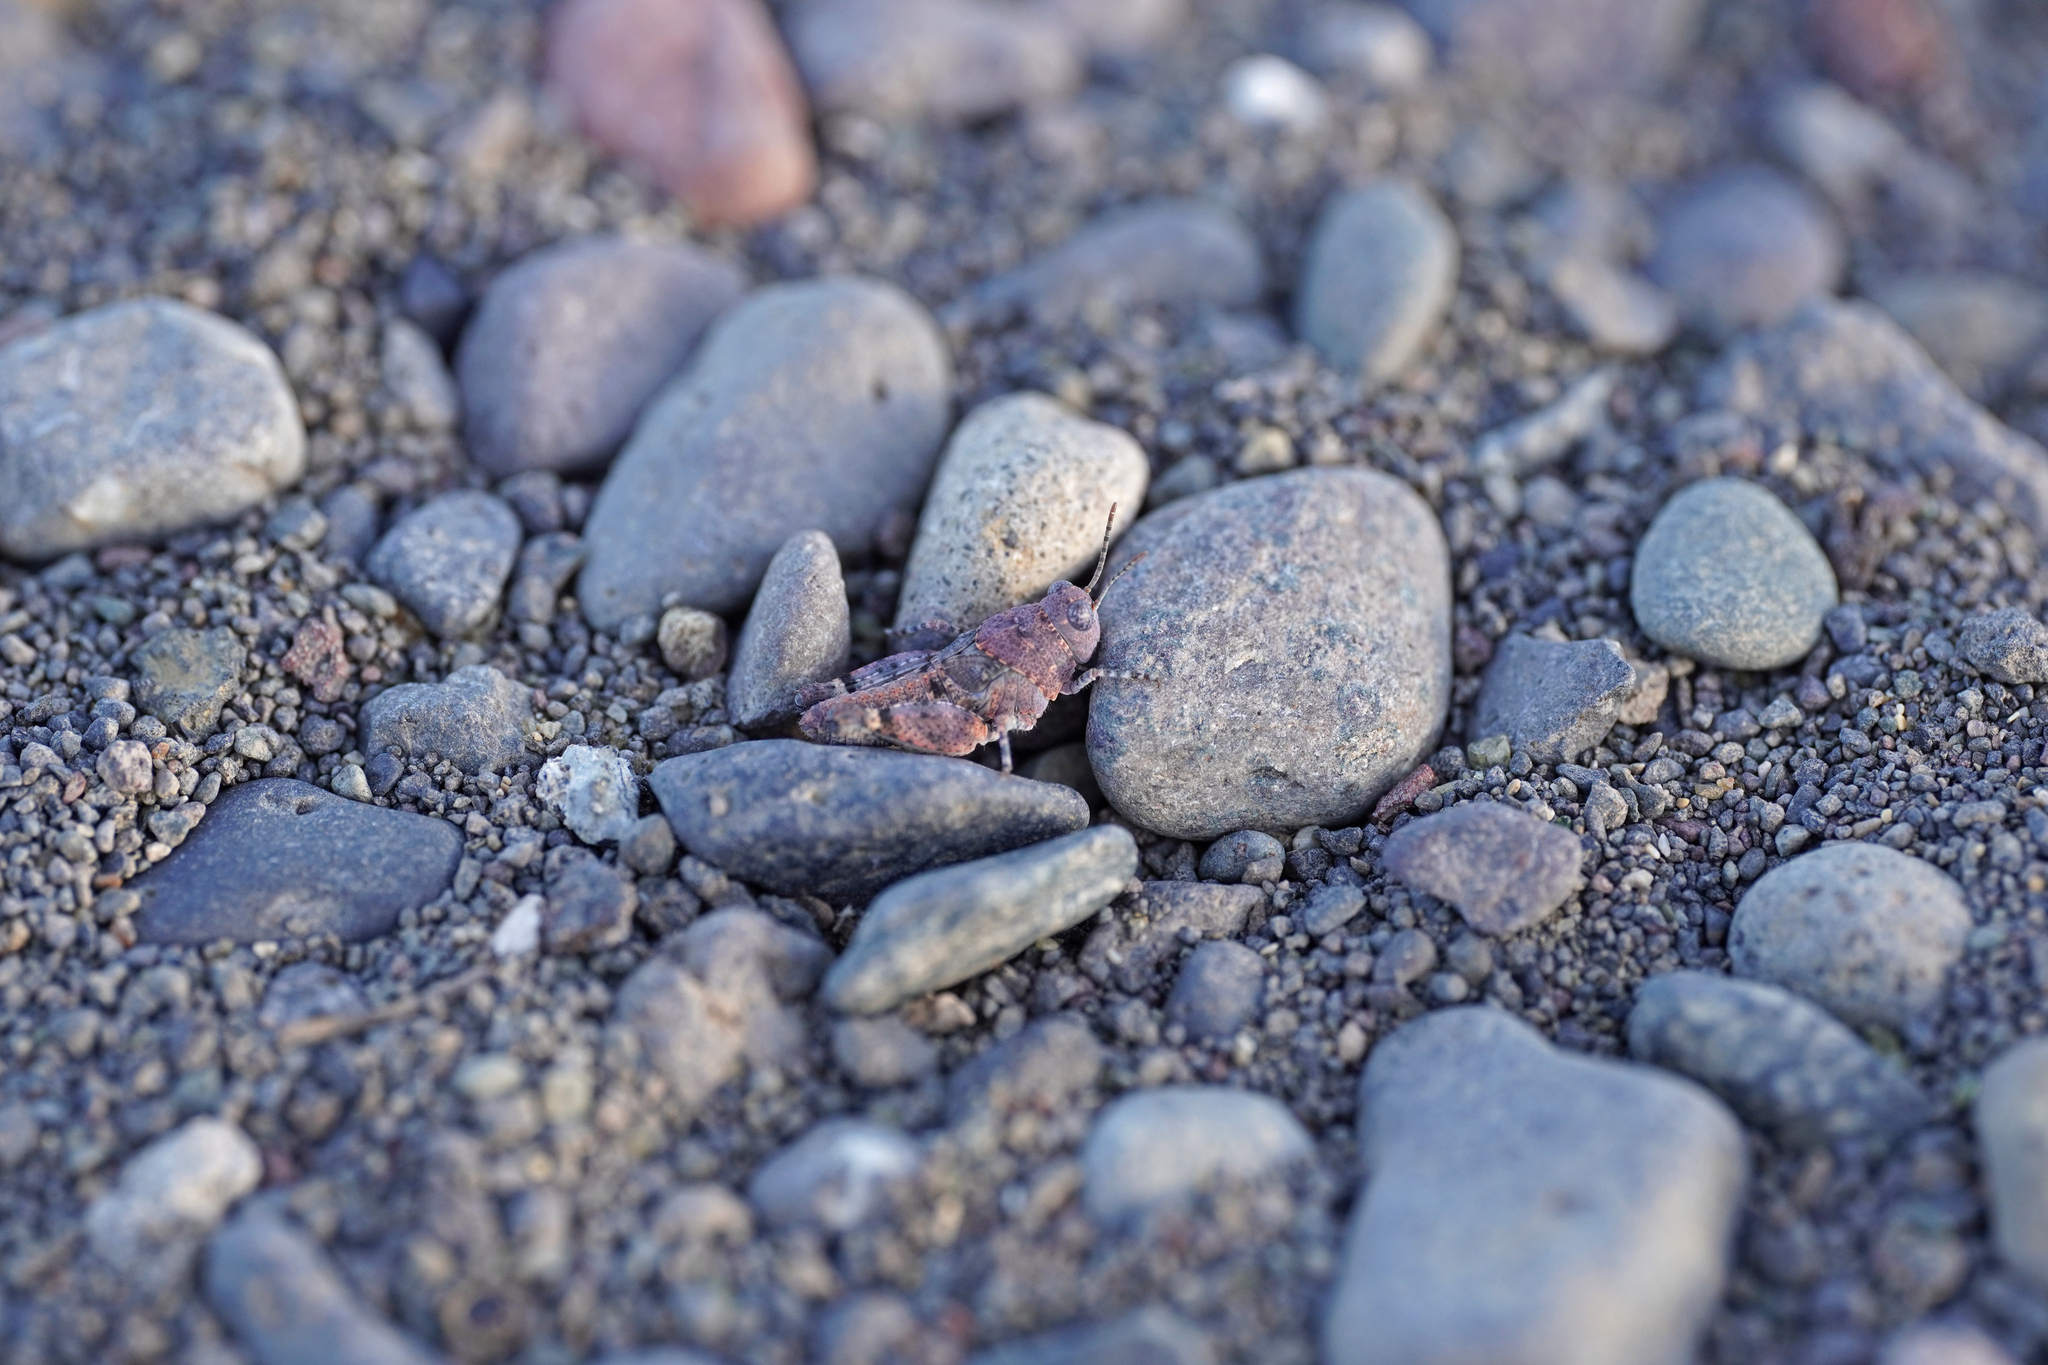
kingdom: Animalia
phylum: Arthropoda
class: Insecta
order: Orthoptera
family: Acrididae
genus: Sphingonotus
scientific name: Sphingonotus sublaevis
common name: Red sand grasshopper
